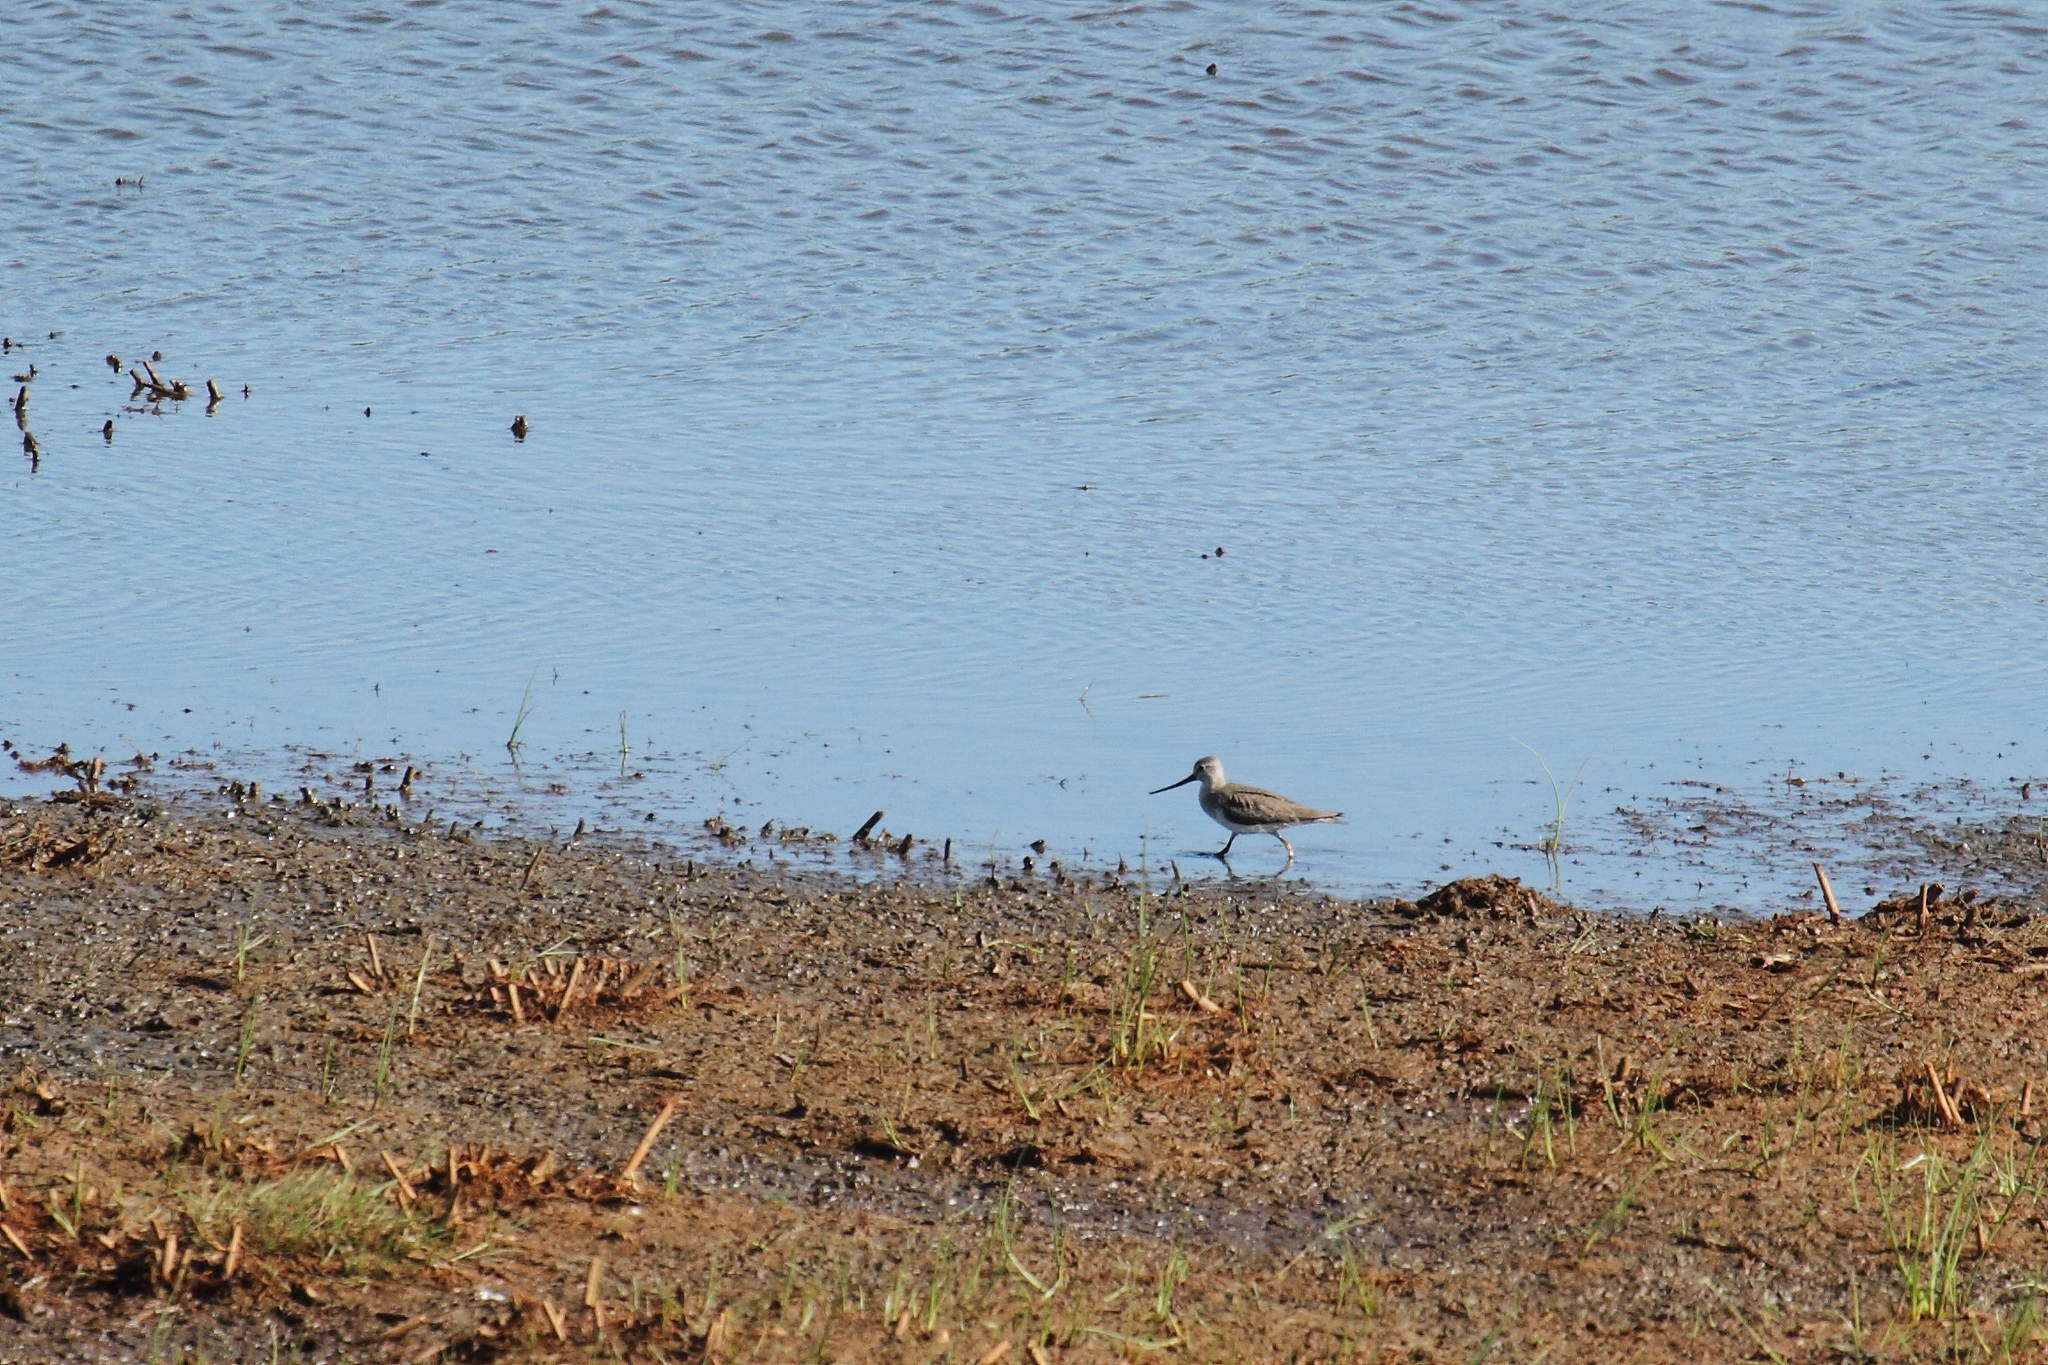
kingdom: Animalia
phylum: Chordata
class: Aves
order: Charadriiformes
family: Scolopacidae
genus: Xenus
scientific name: Xenus cinereus
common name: Terek sandpiper
